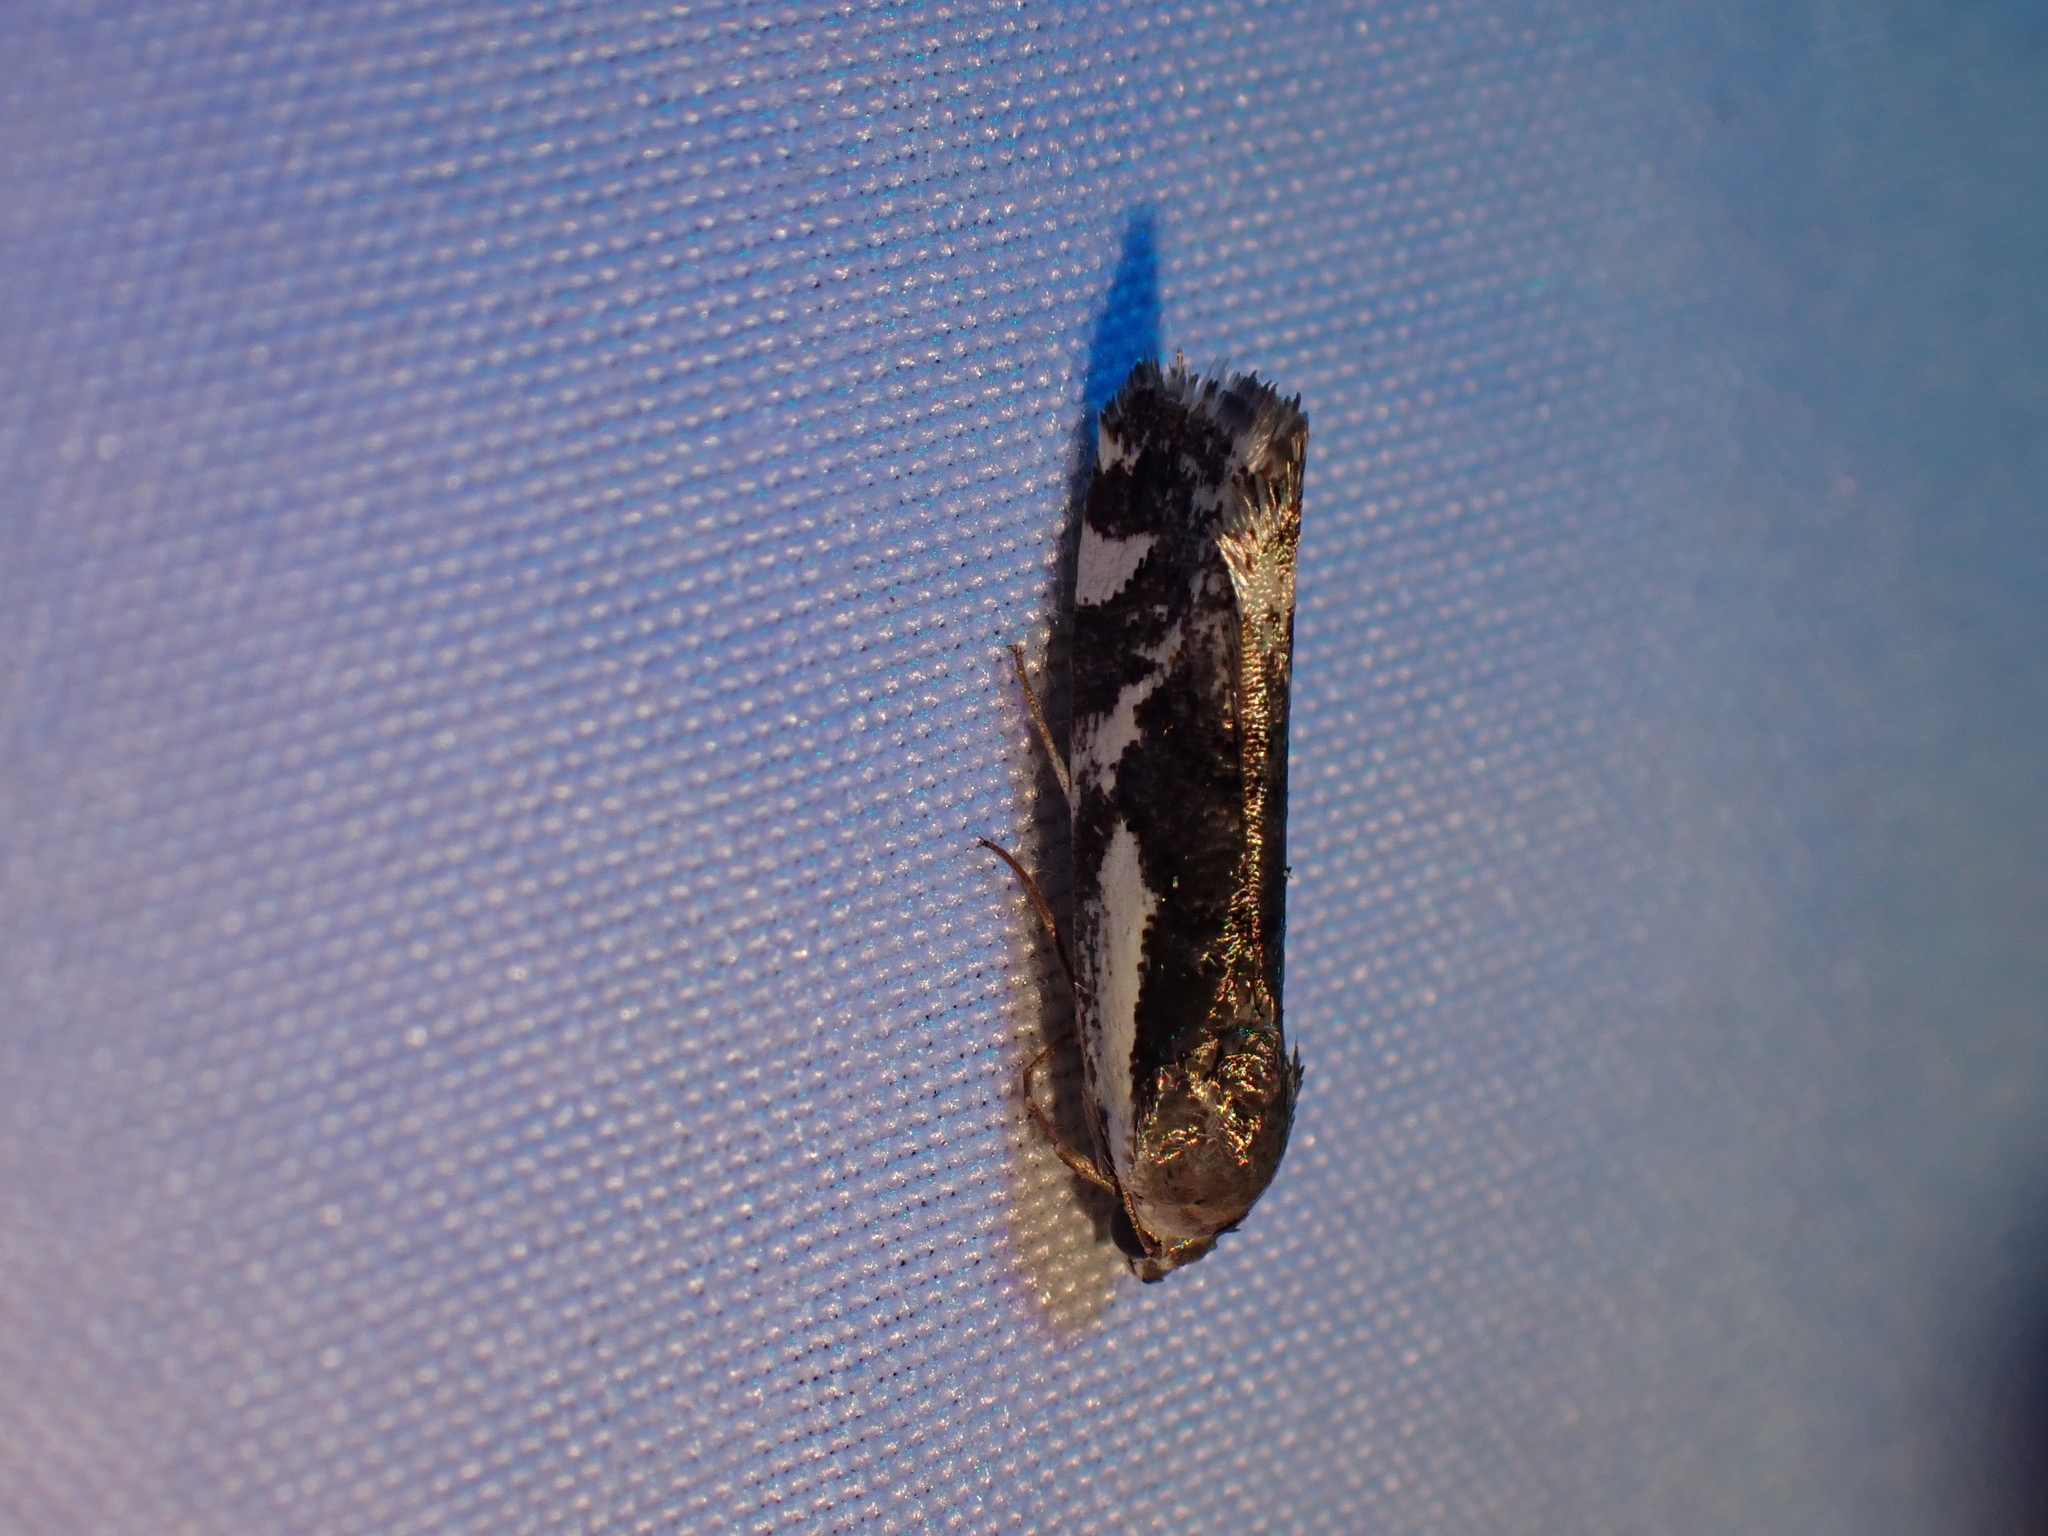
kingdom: Animalia
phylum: Arthropoda
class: Insecta
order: Lepidoptera
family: Noctuidae
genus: Acontia
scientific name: Acontia Tarache augustipennis
